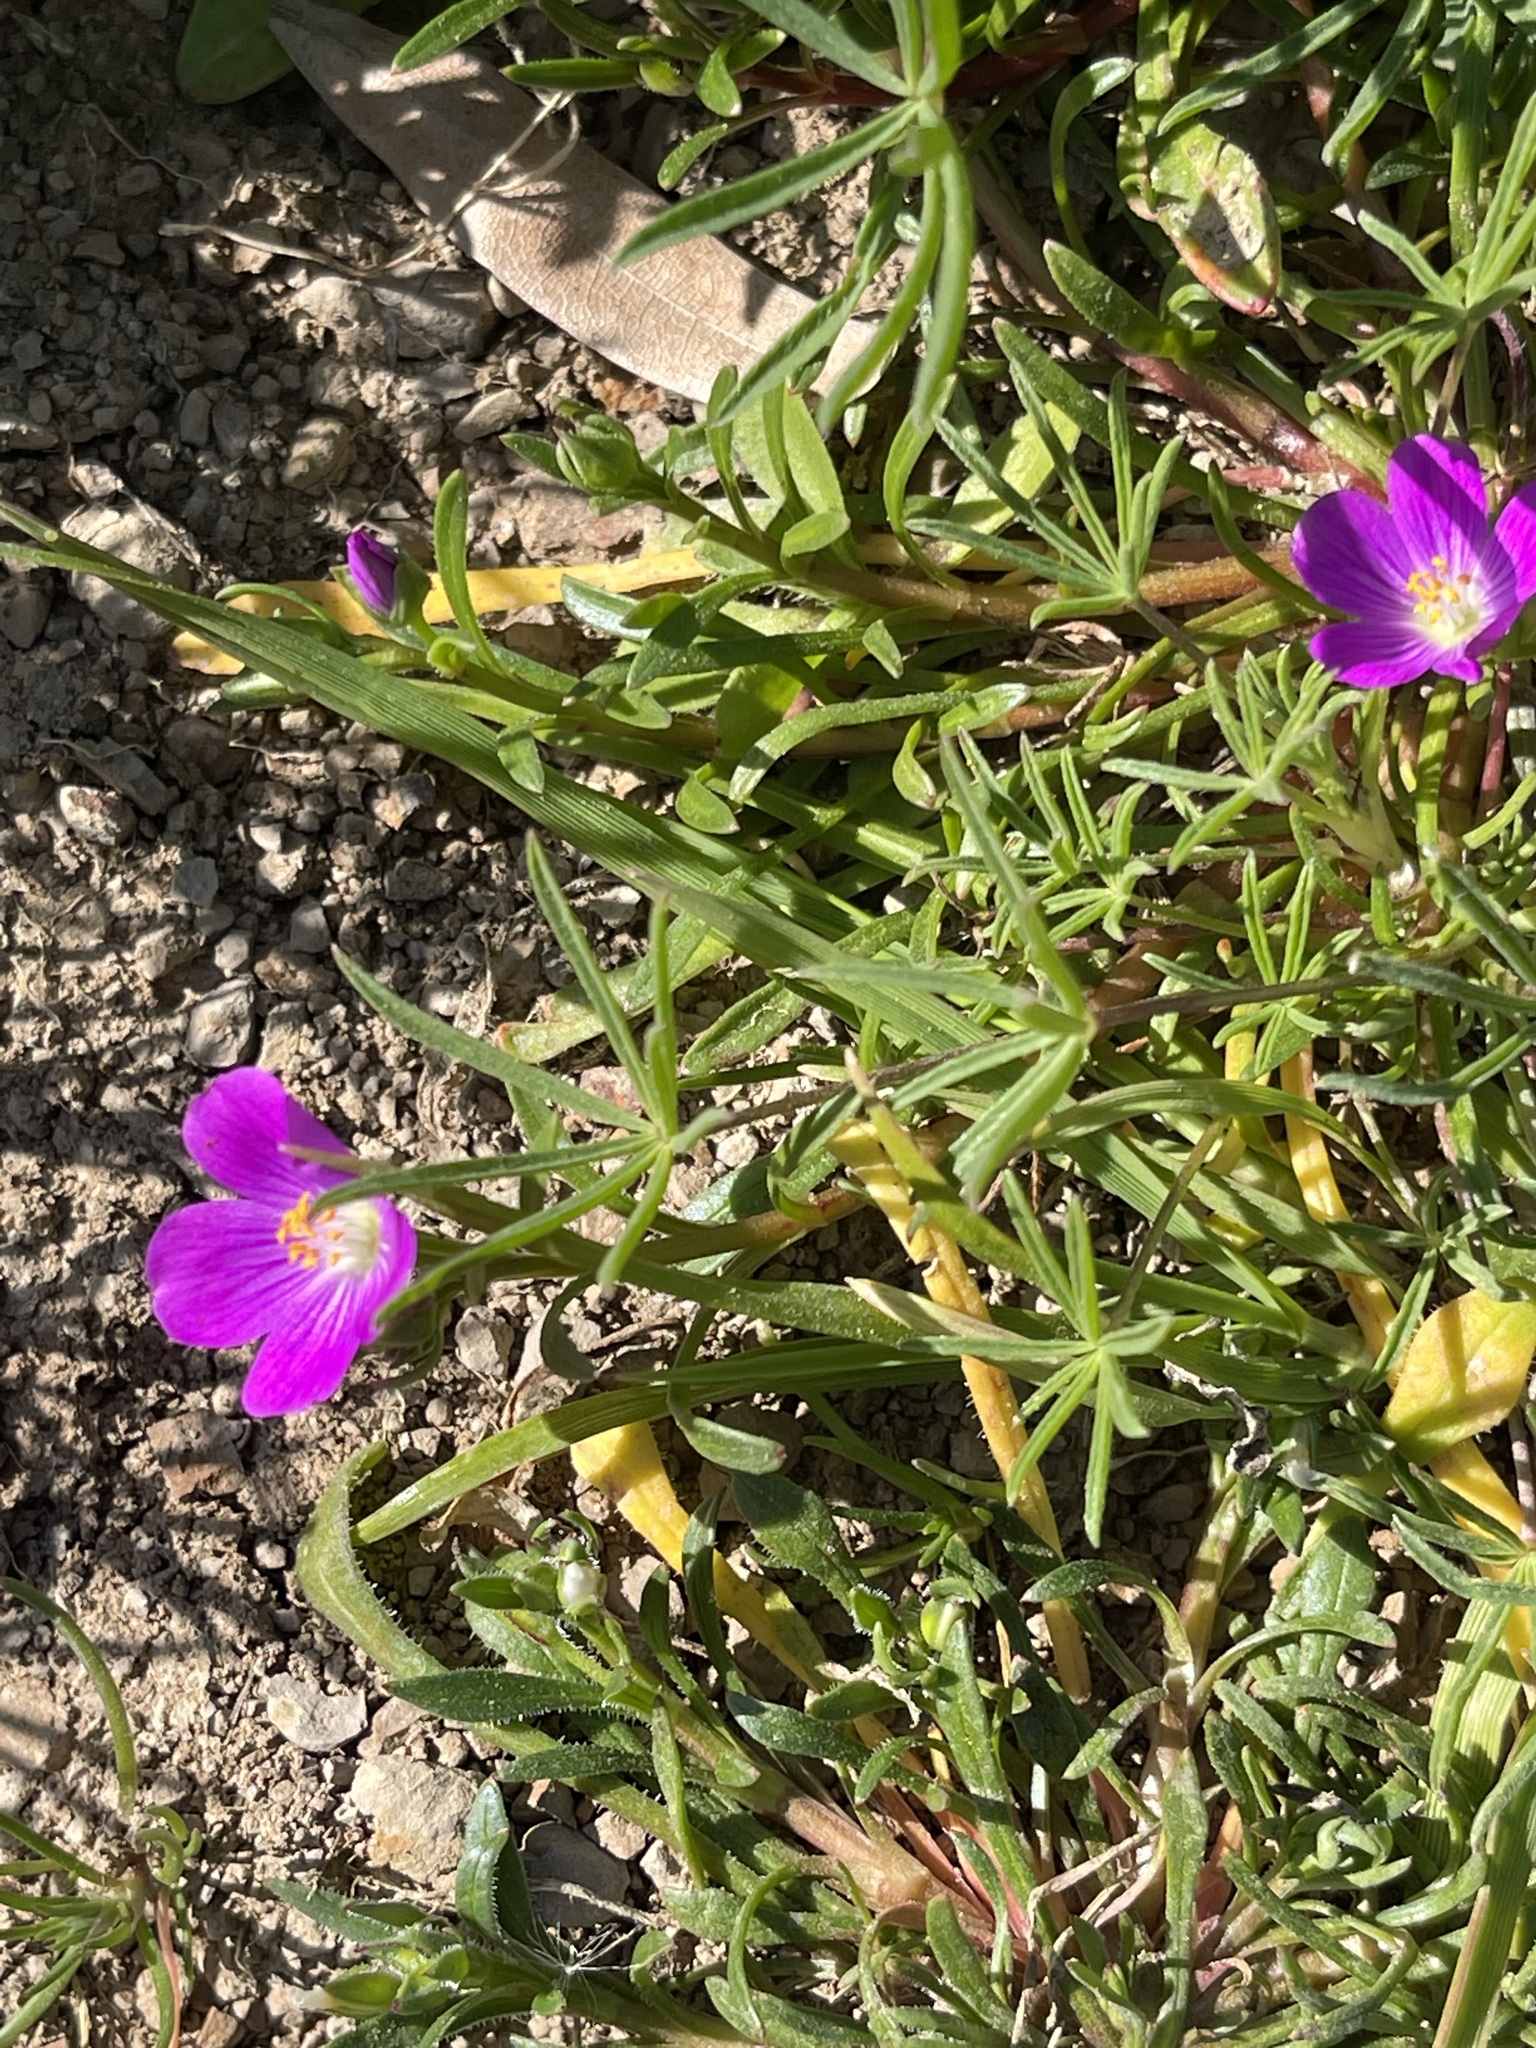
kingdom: Plantae
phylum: Tracheophyta
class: Magnoliopsida
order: Caryophyllales
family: Montiaceae
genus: Calandrinia
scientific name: Calandrinia menziesii
